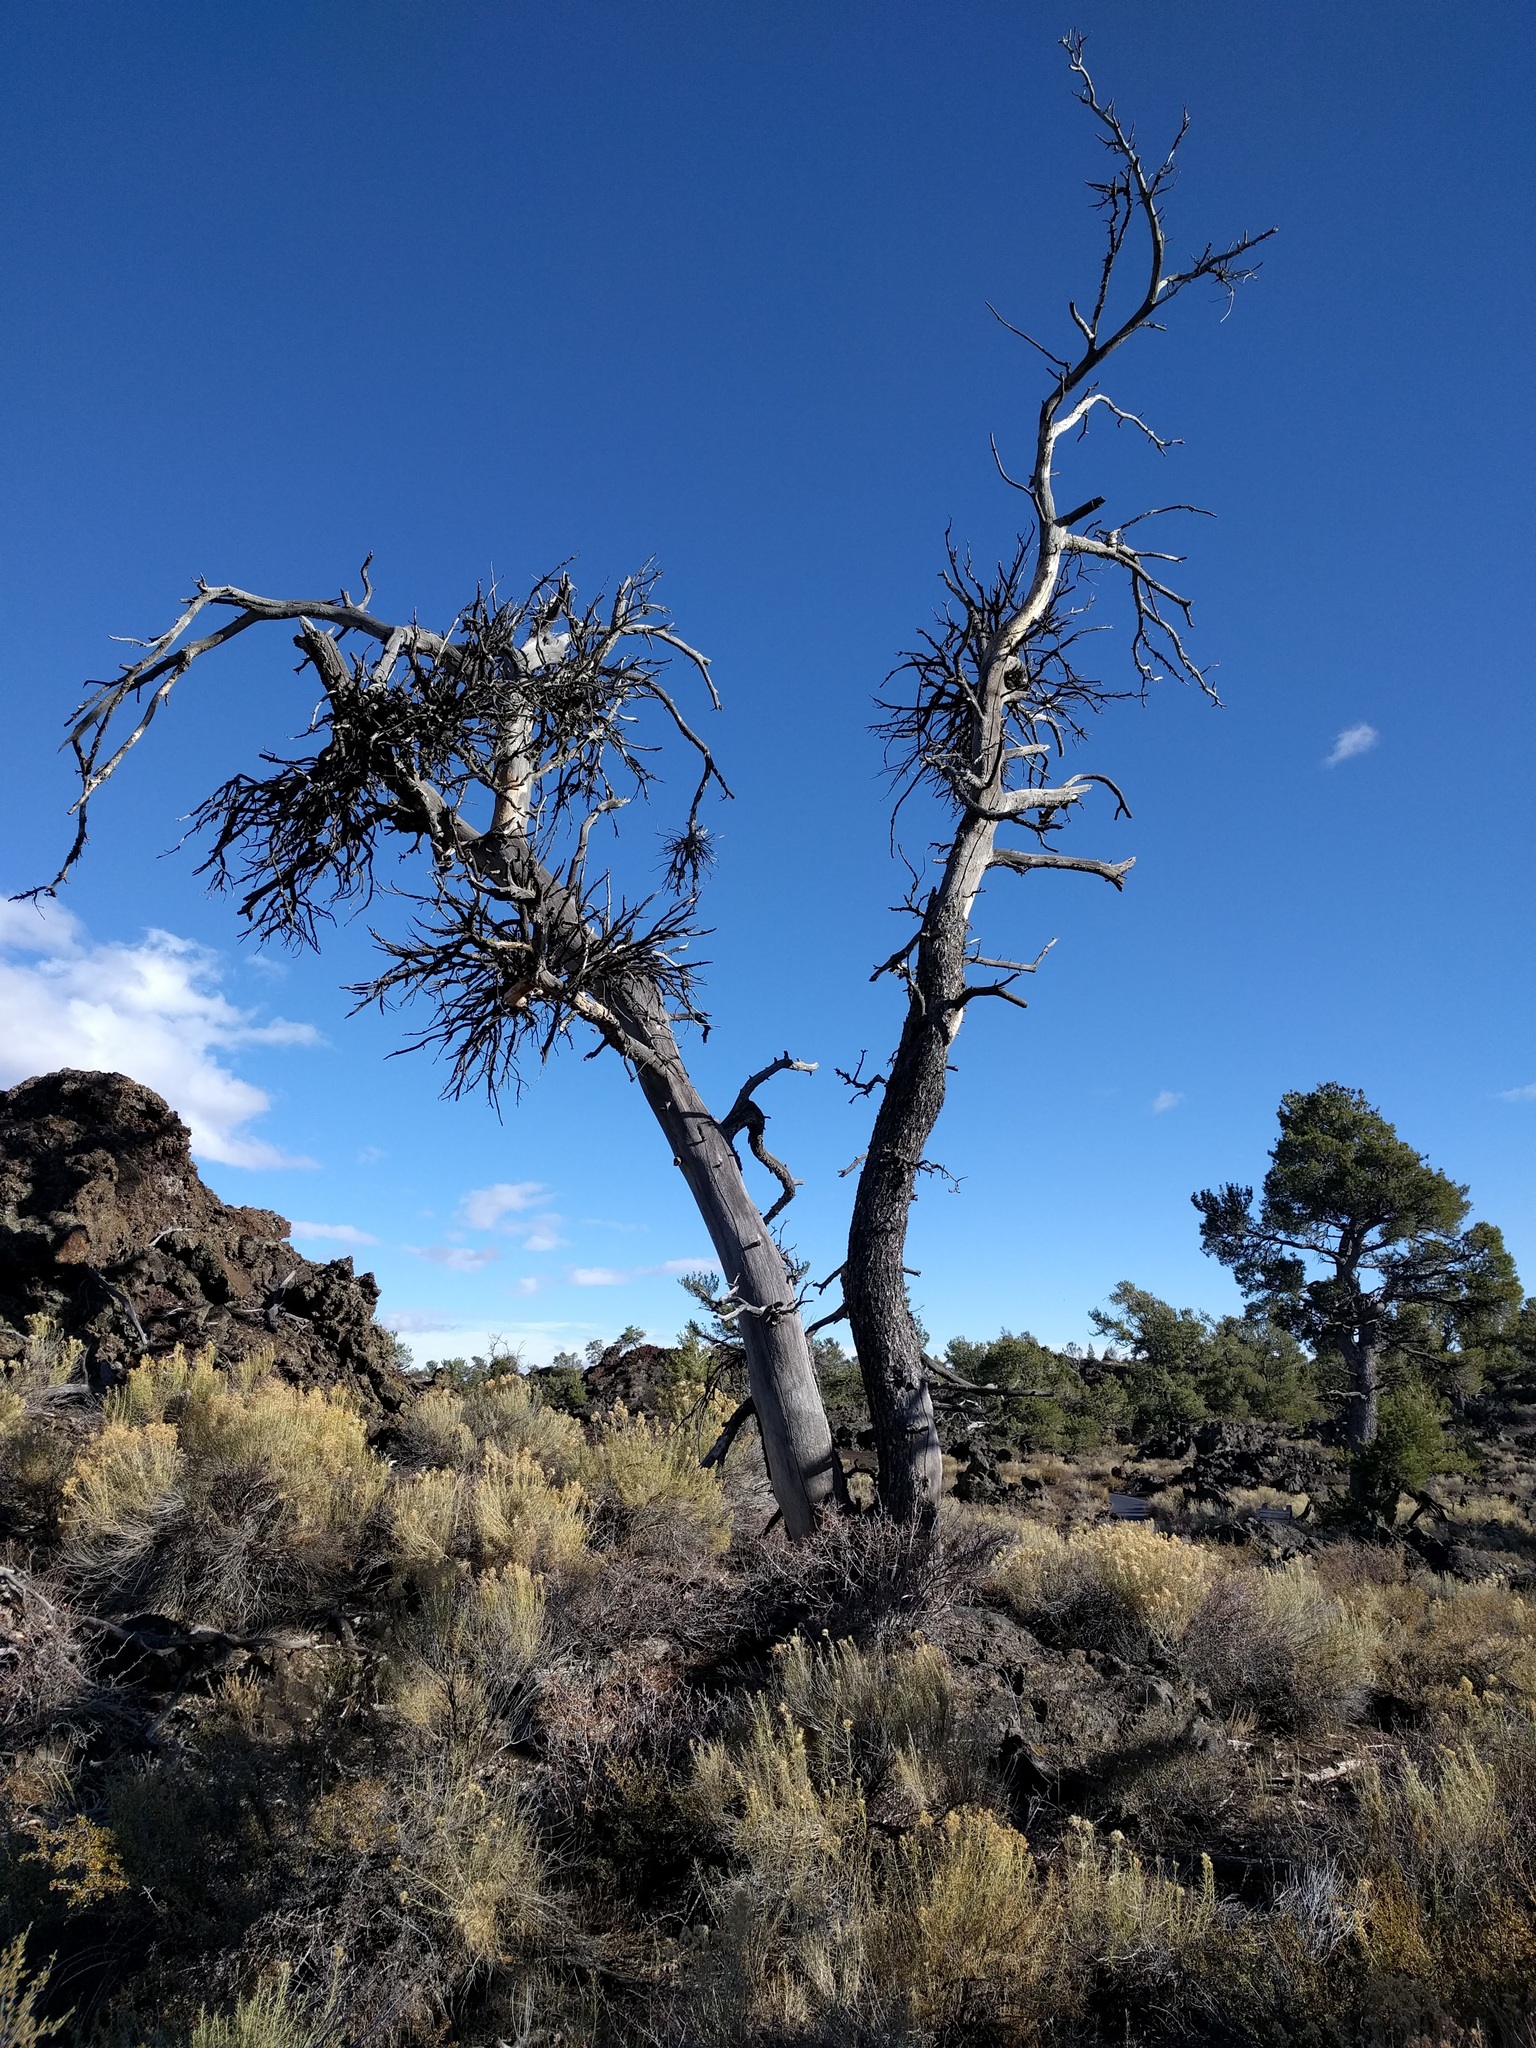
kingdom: Plantae
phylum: Tracheophyta
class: Pinopsida
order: Pinales
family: Pinaceae
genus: Pinus
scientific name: Pinus flexilis
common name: Limber pine
